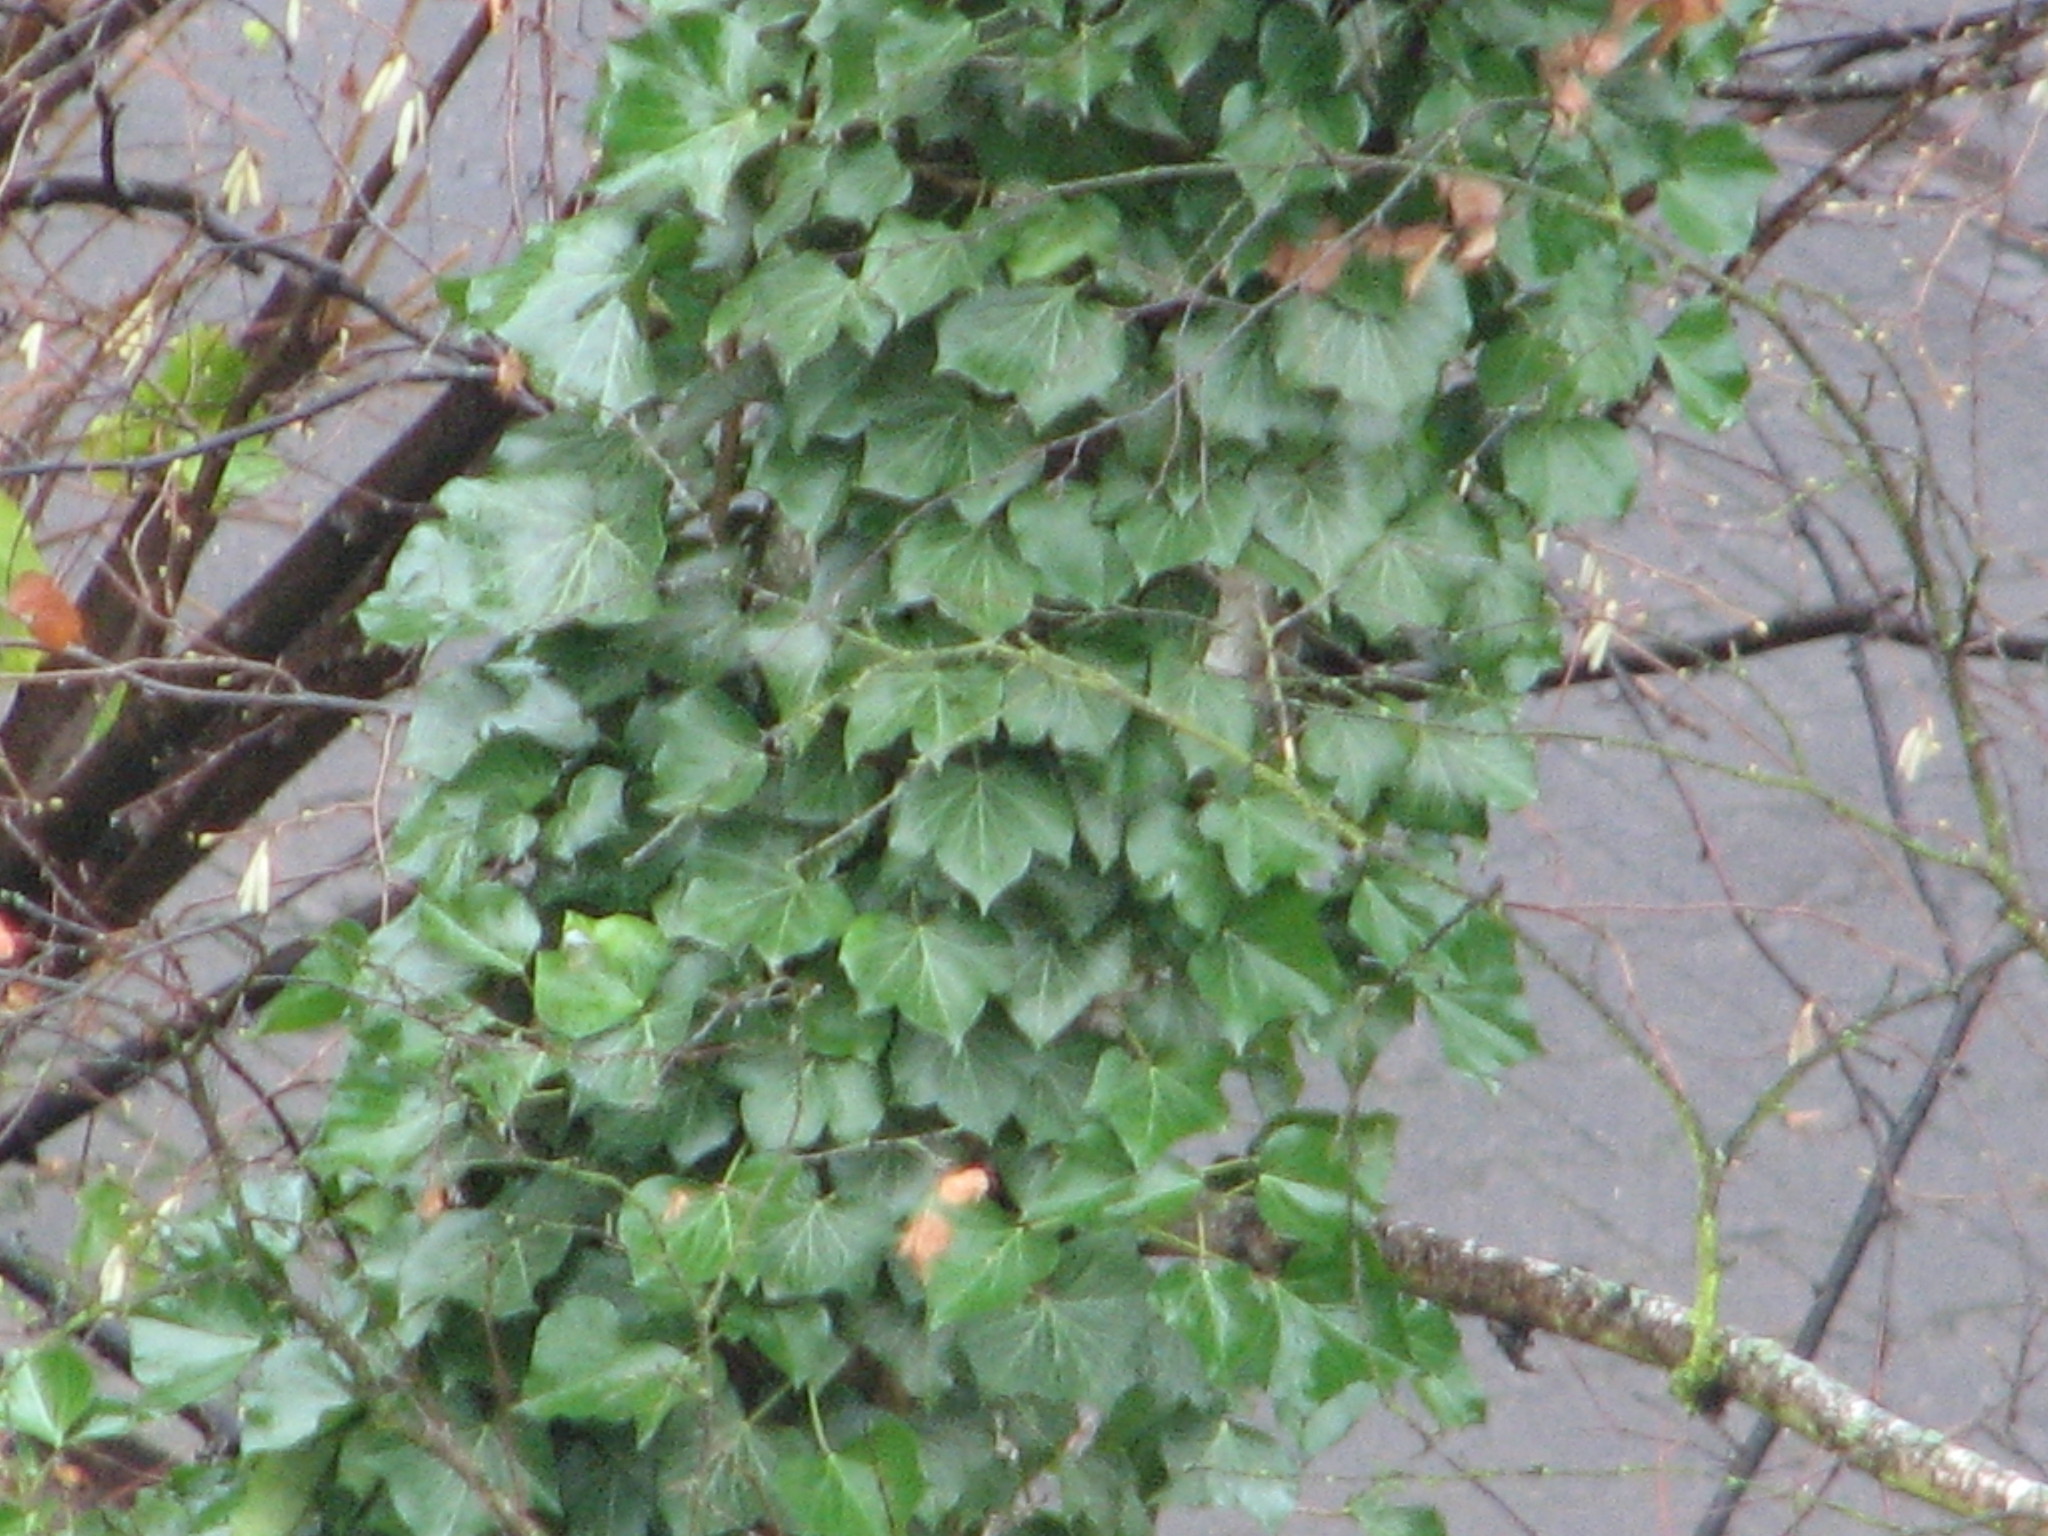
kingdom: Plantae
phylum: Tracheophyta
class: Magnoliopsida
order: Apiales
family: Araliaceae
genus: Hedera
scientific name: Hedera helix
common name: Ivy
